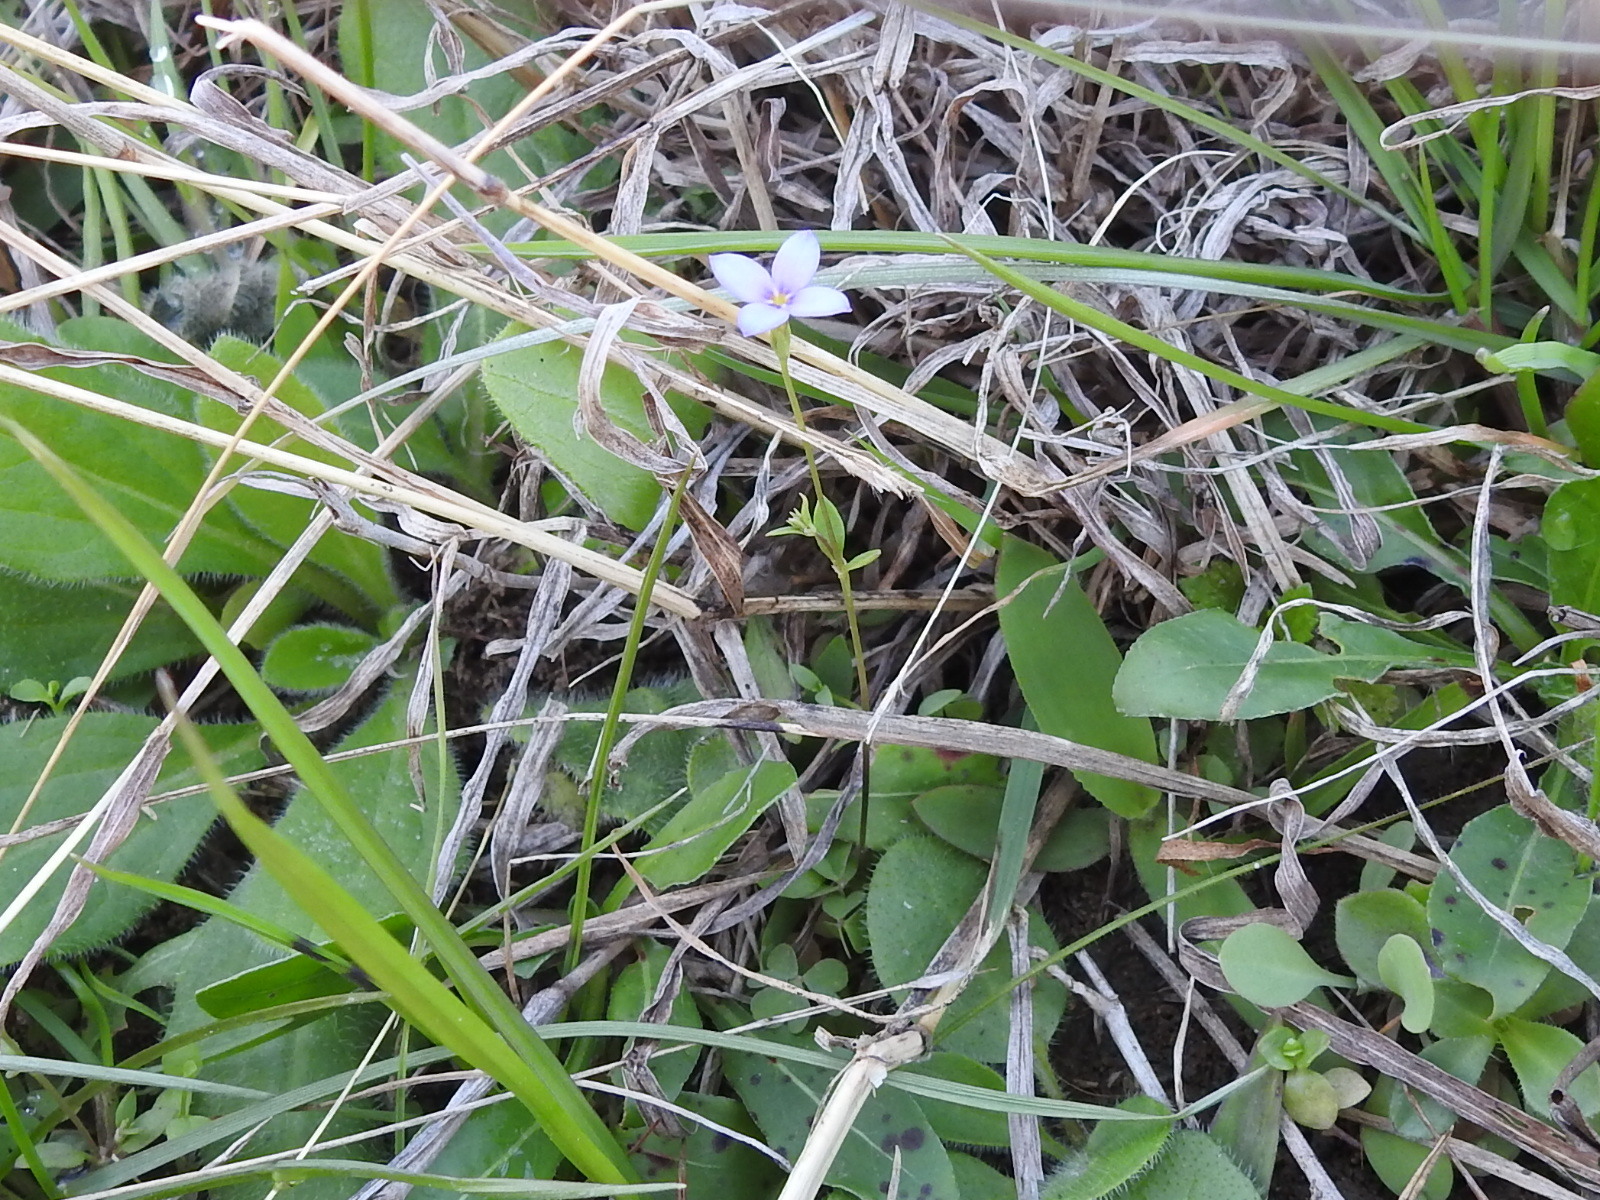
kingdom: Plantae
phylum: Tracheophyta
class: Magnoliopsida
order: Gentianales
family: Rubiaceae
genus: Houstonia
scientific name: Houstonia pusilla
